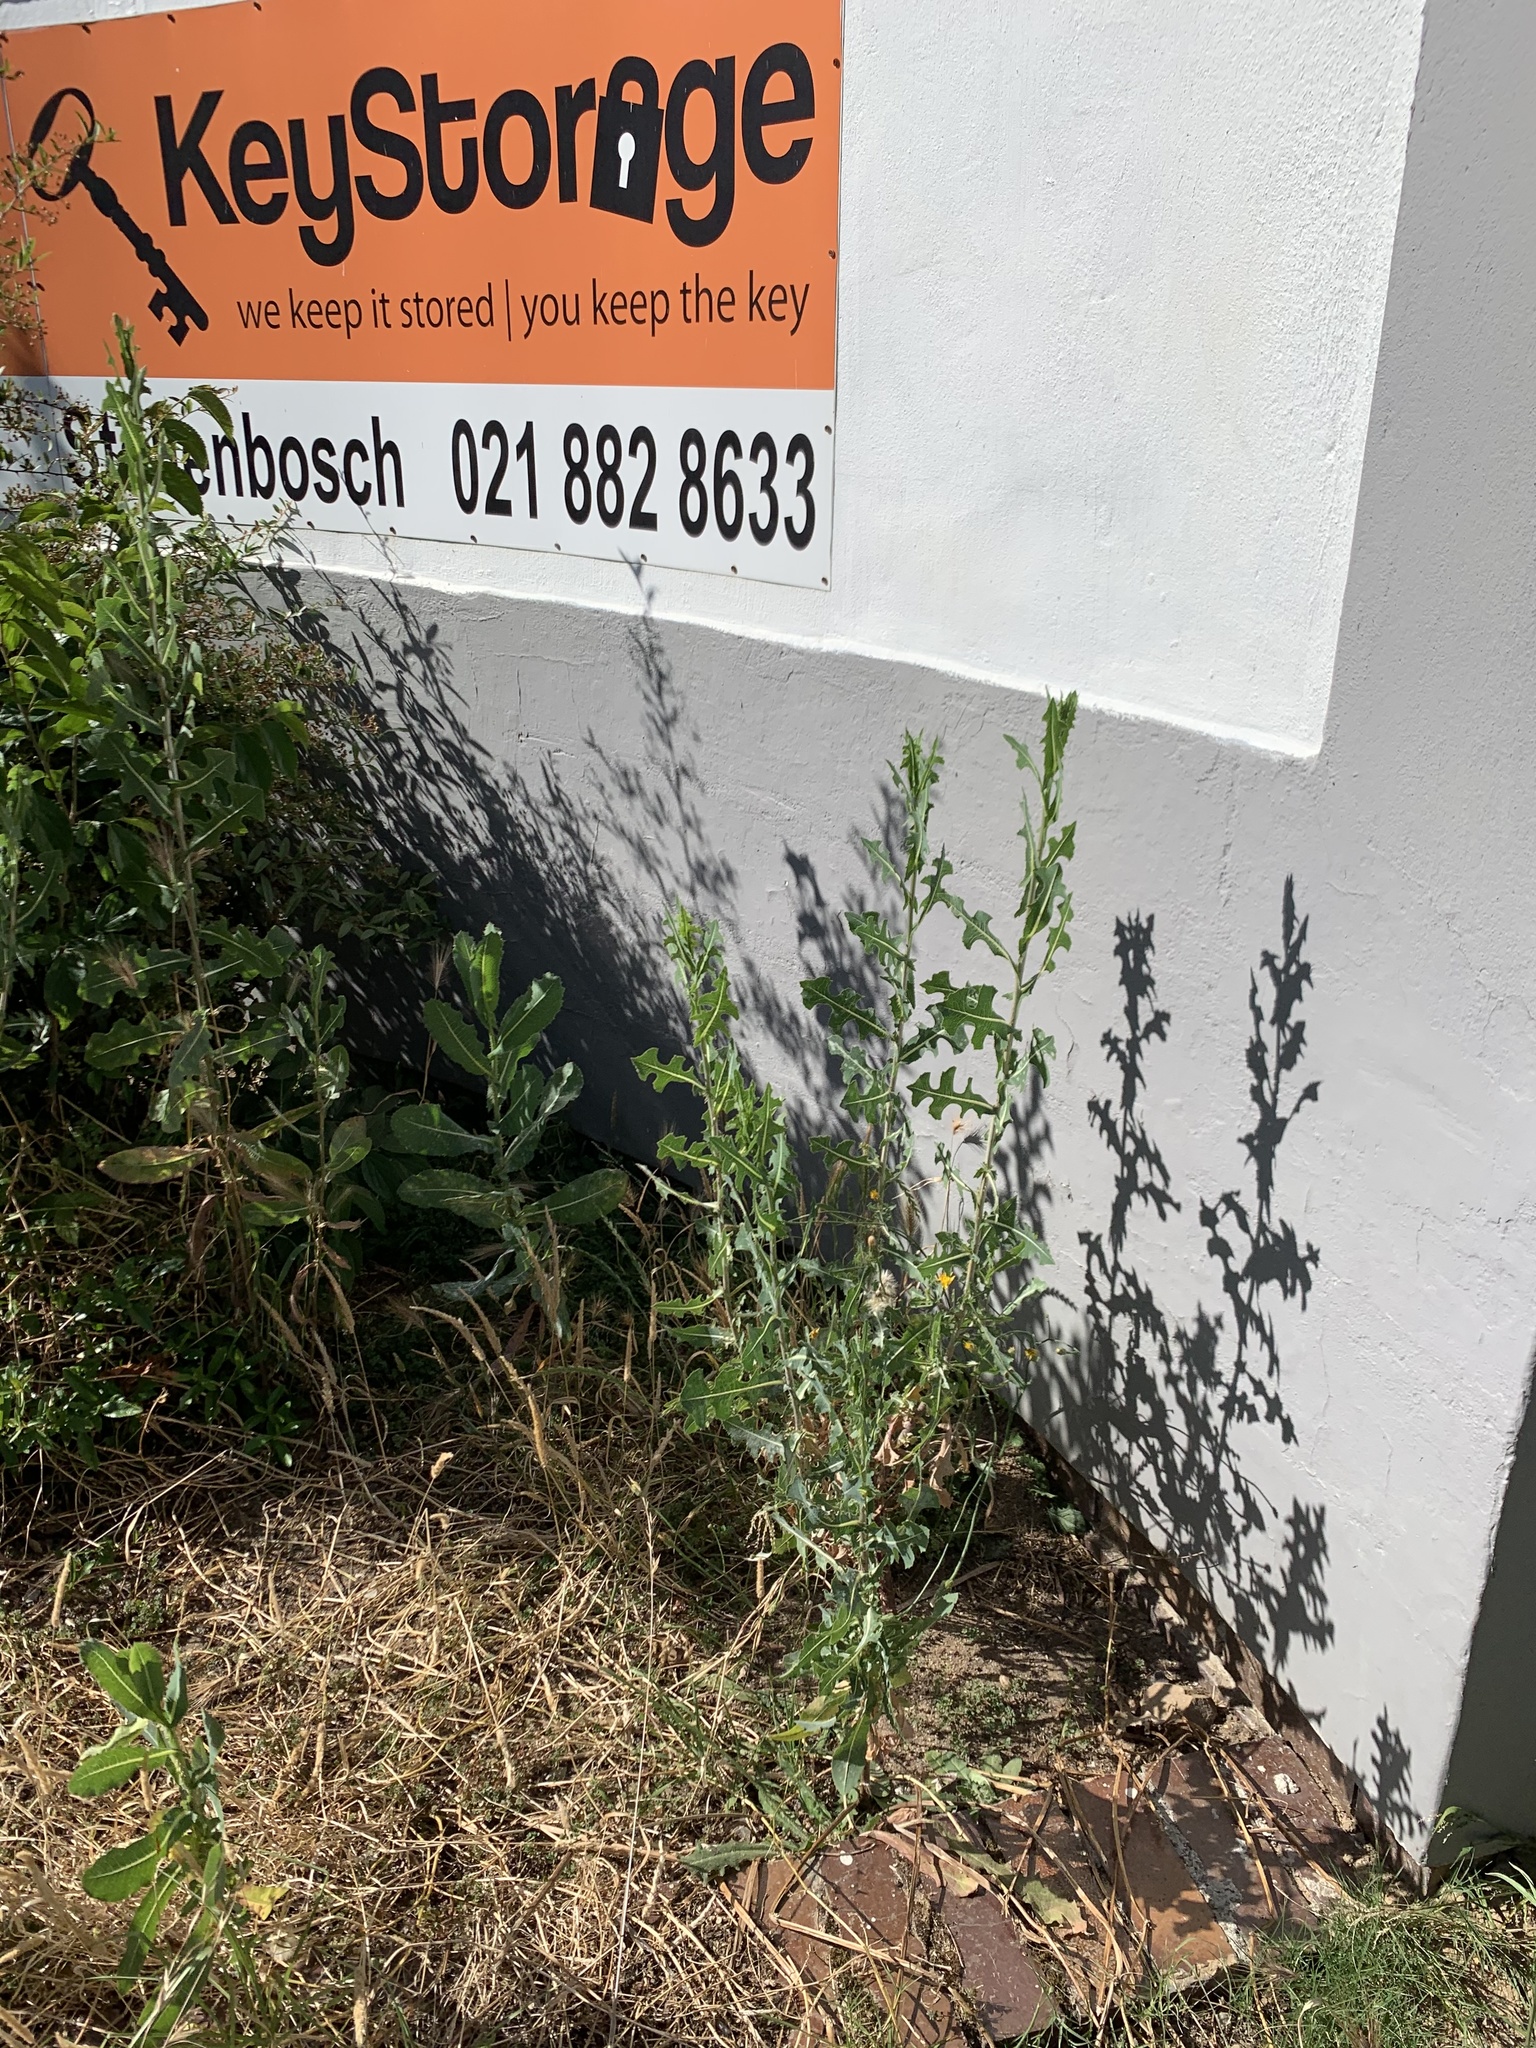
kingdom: Plantae
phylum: Tracheophyta
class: Magnoliopsida
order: Asterales
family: Asteraceae
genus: Lactuca
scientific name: Lactuca serriola
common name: Prickly lettuce
